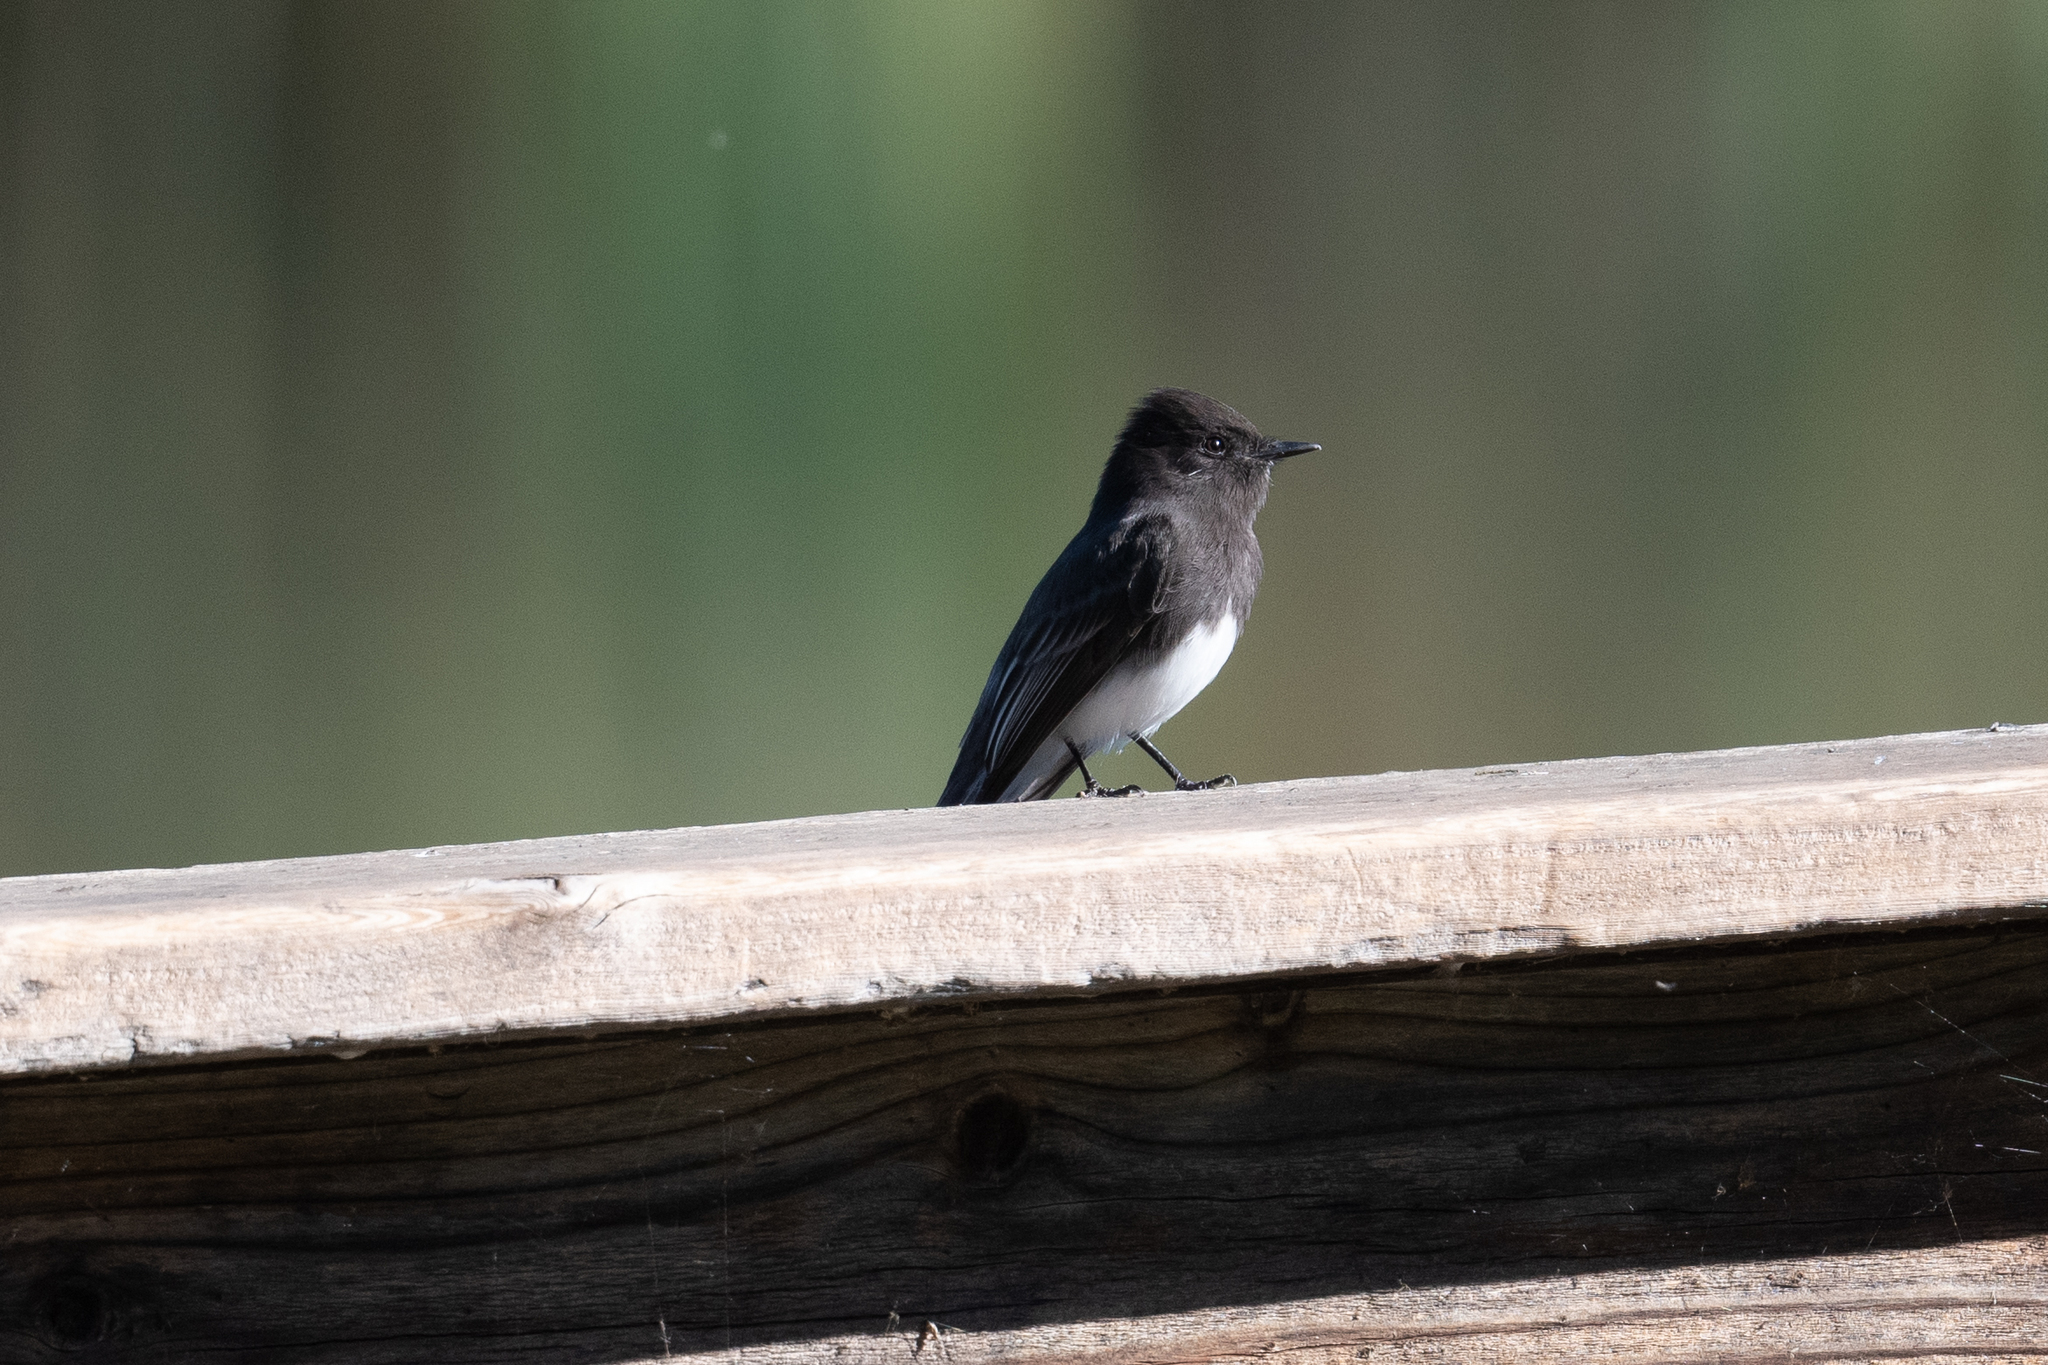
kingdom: Animalia
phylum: Chordata
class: Aves
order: Passeriformes
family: Tyrannidae
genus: Sayornis
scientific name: Sayornis nigricans
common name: Black phoebe
